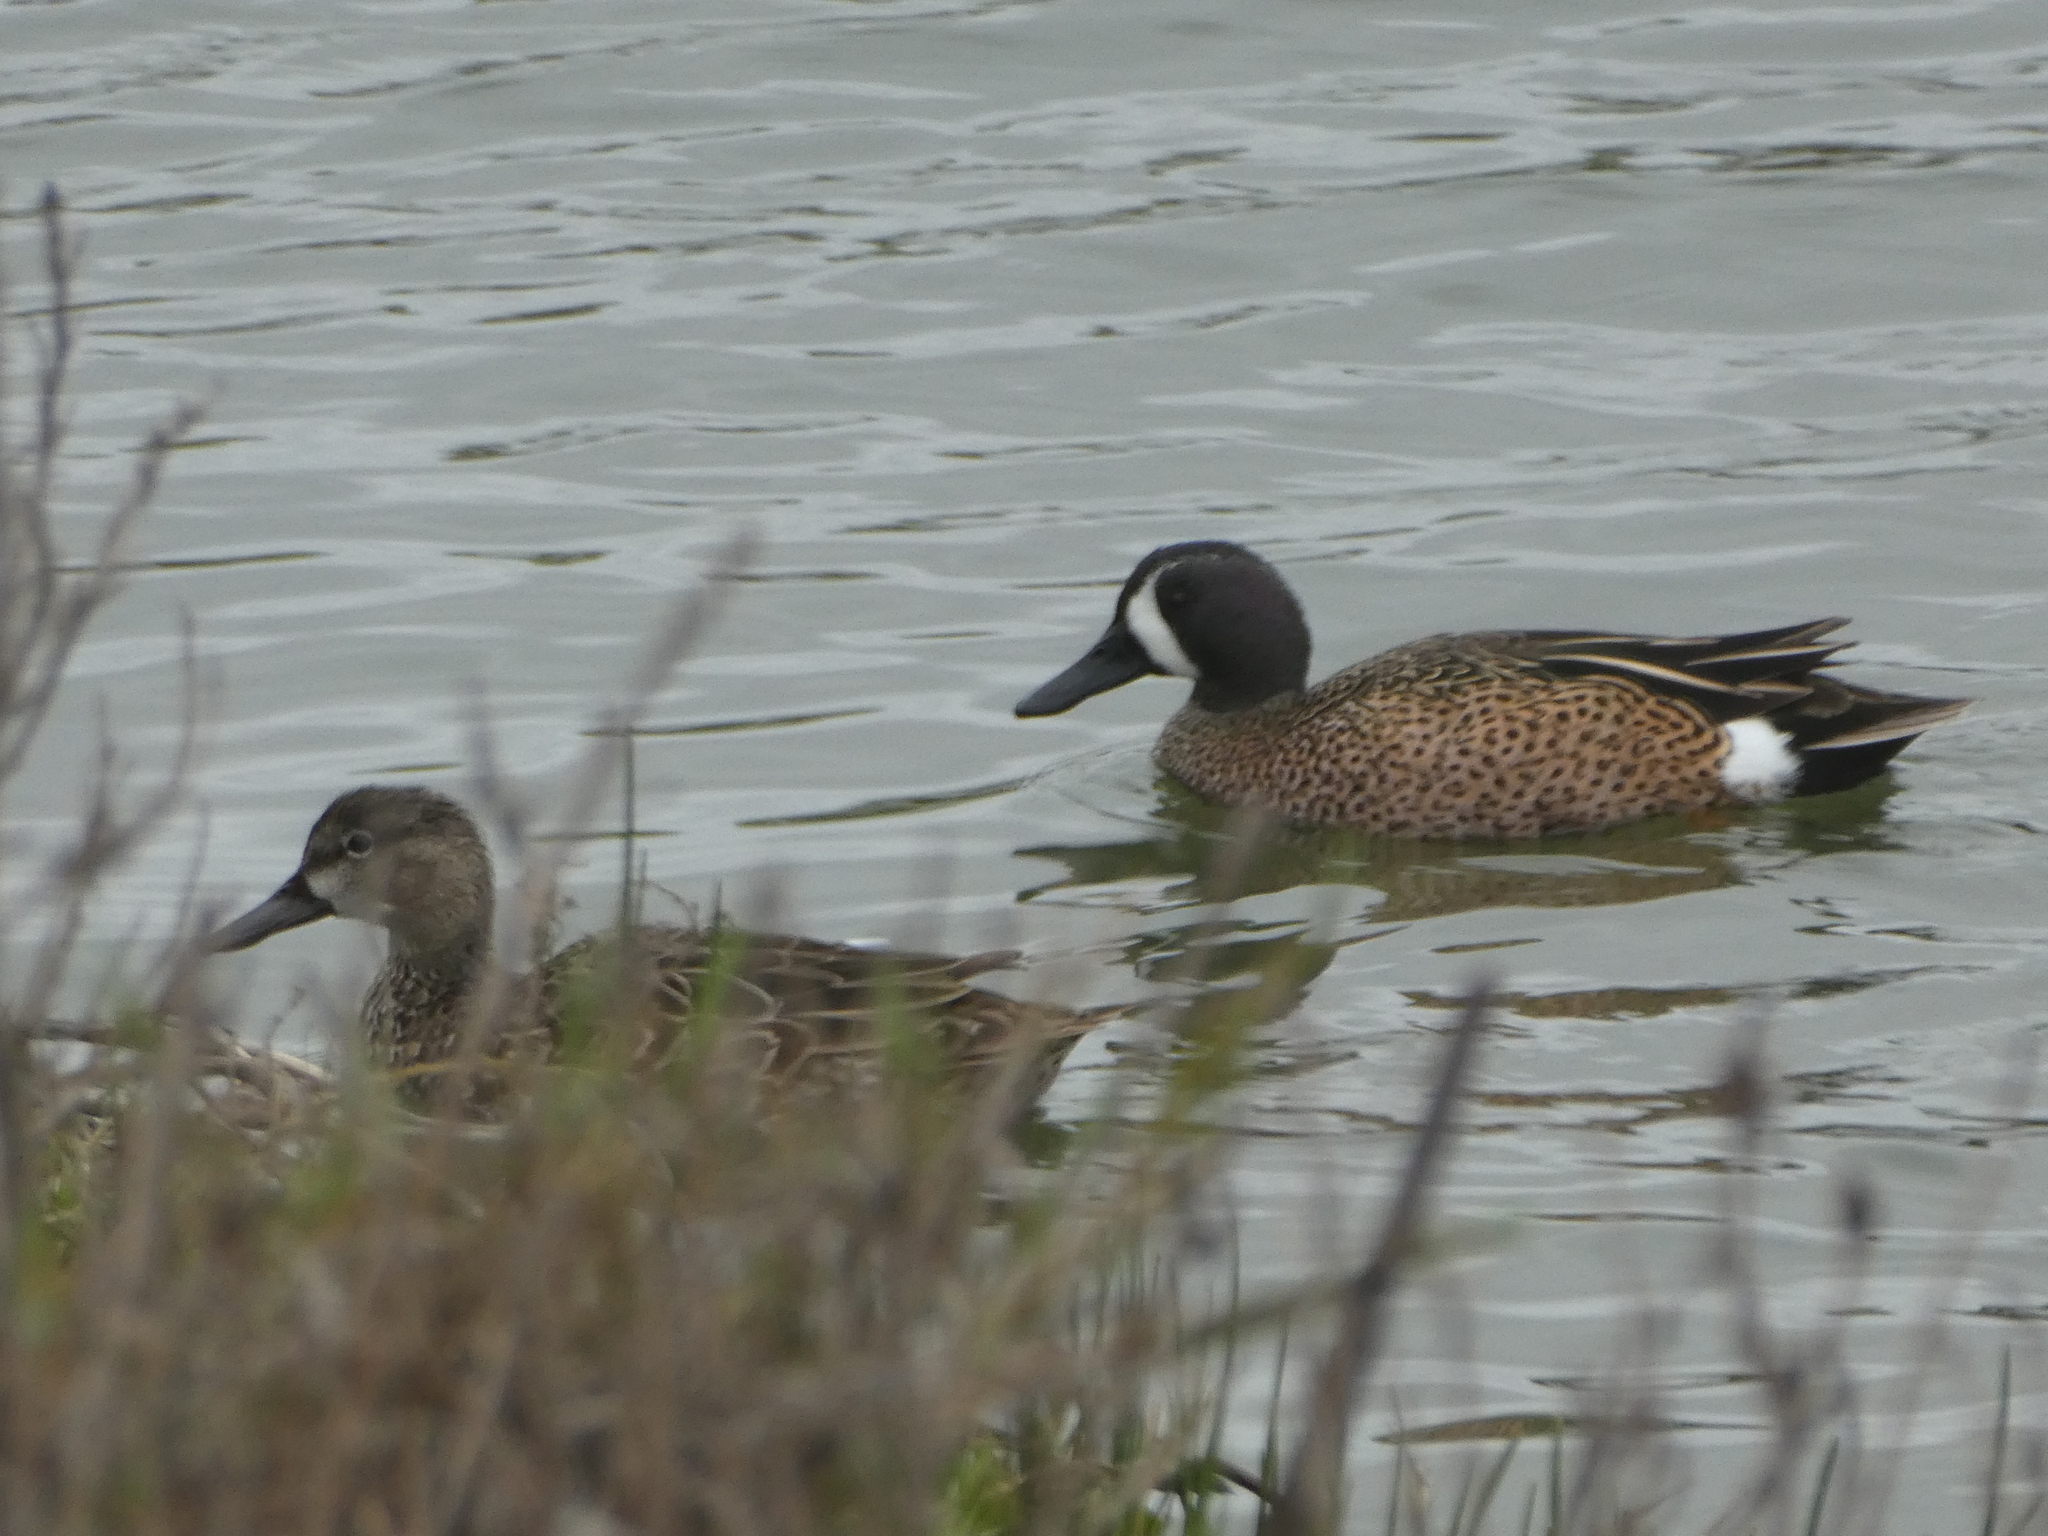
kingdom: Animalia
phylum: Chordata
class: Aves
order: Anseriformes
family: Anatidae
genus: Spatula
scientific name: Spatula discors
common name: Blue-winged teal
